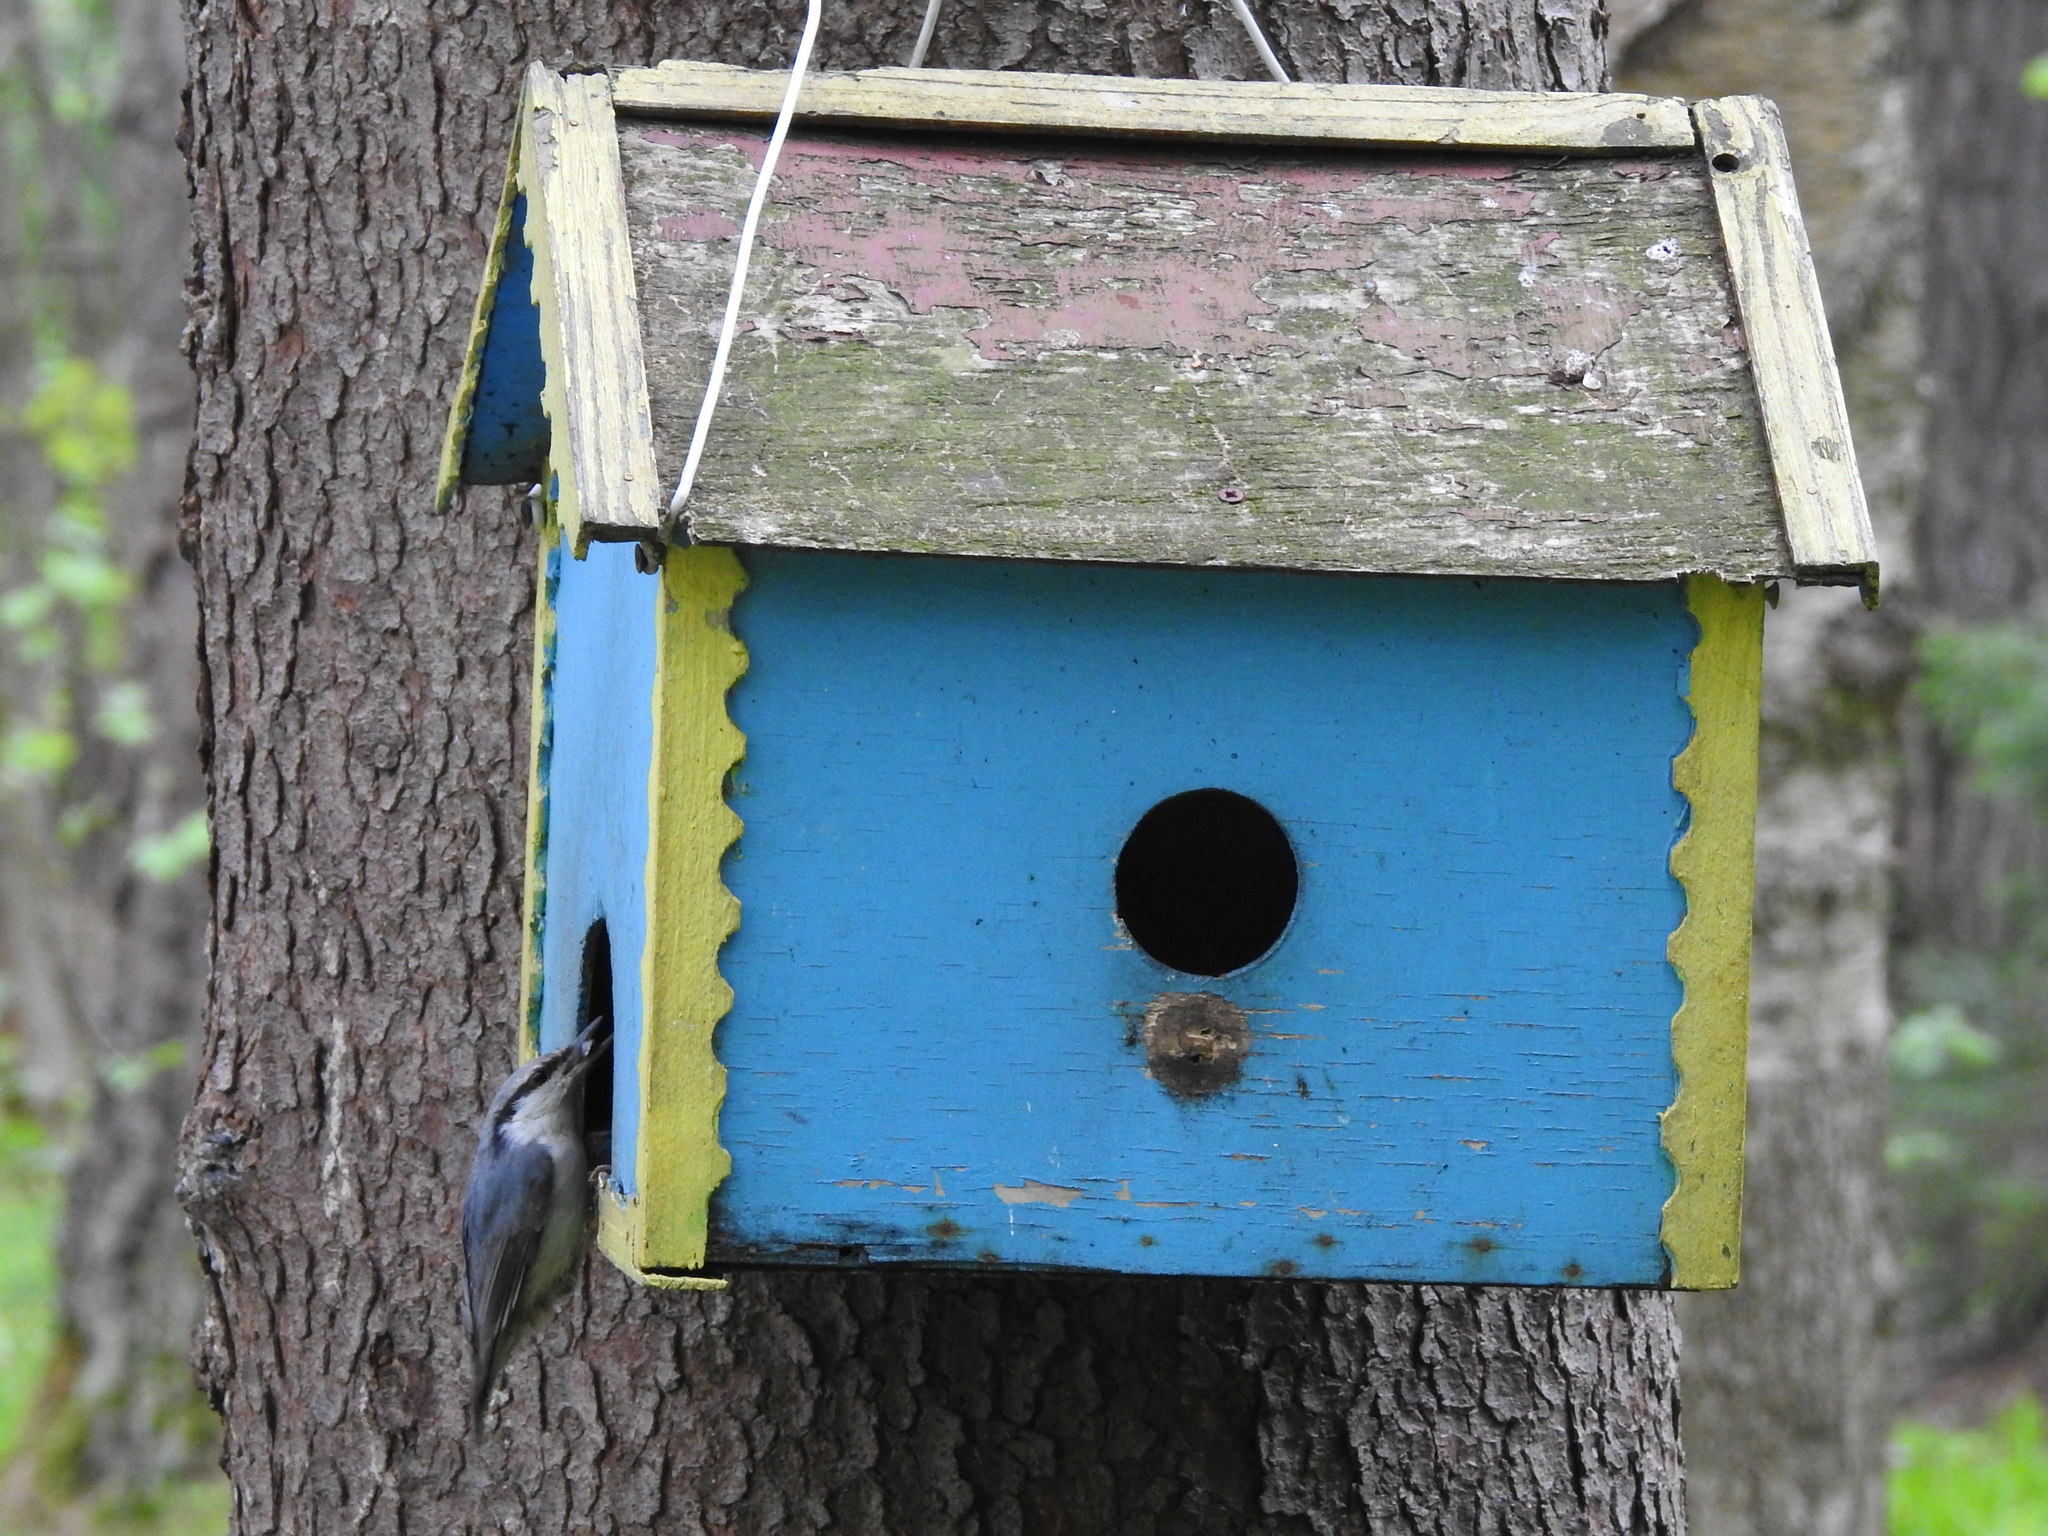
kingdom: Animalia
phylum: Chordata
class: Aves
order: Passeriformes
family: Sittidae
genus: Sitta
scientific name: Sitta europaea
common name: Eurasian nuthatch
